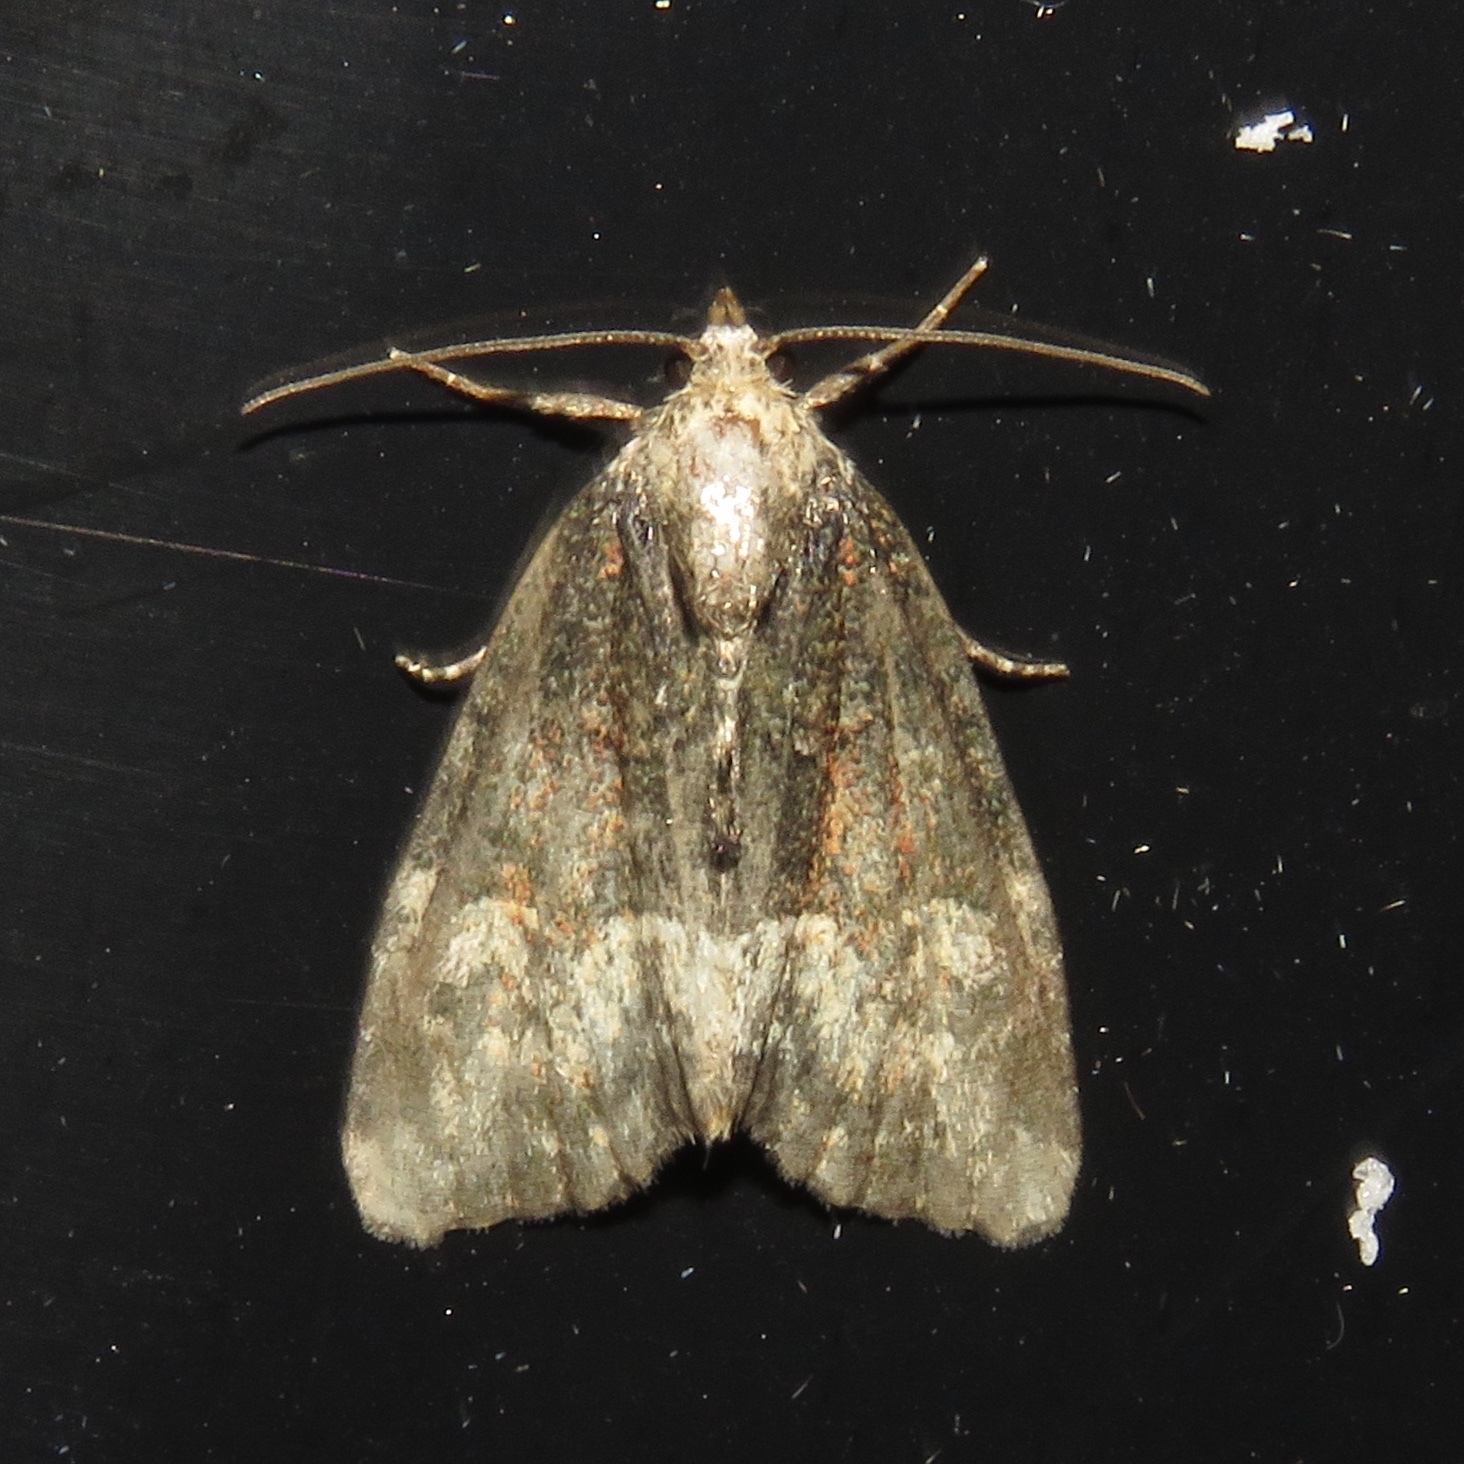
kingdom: Animalia
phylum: Arthropoda
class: Insecta
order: Lepidoptera
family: Noctuidae
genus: Neoligia
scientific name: Neoligia subjuncta
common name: Connected brocade
